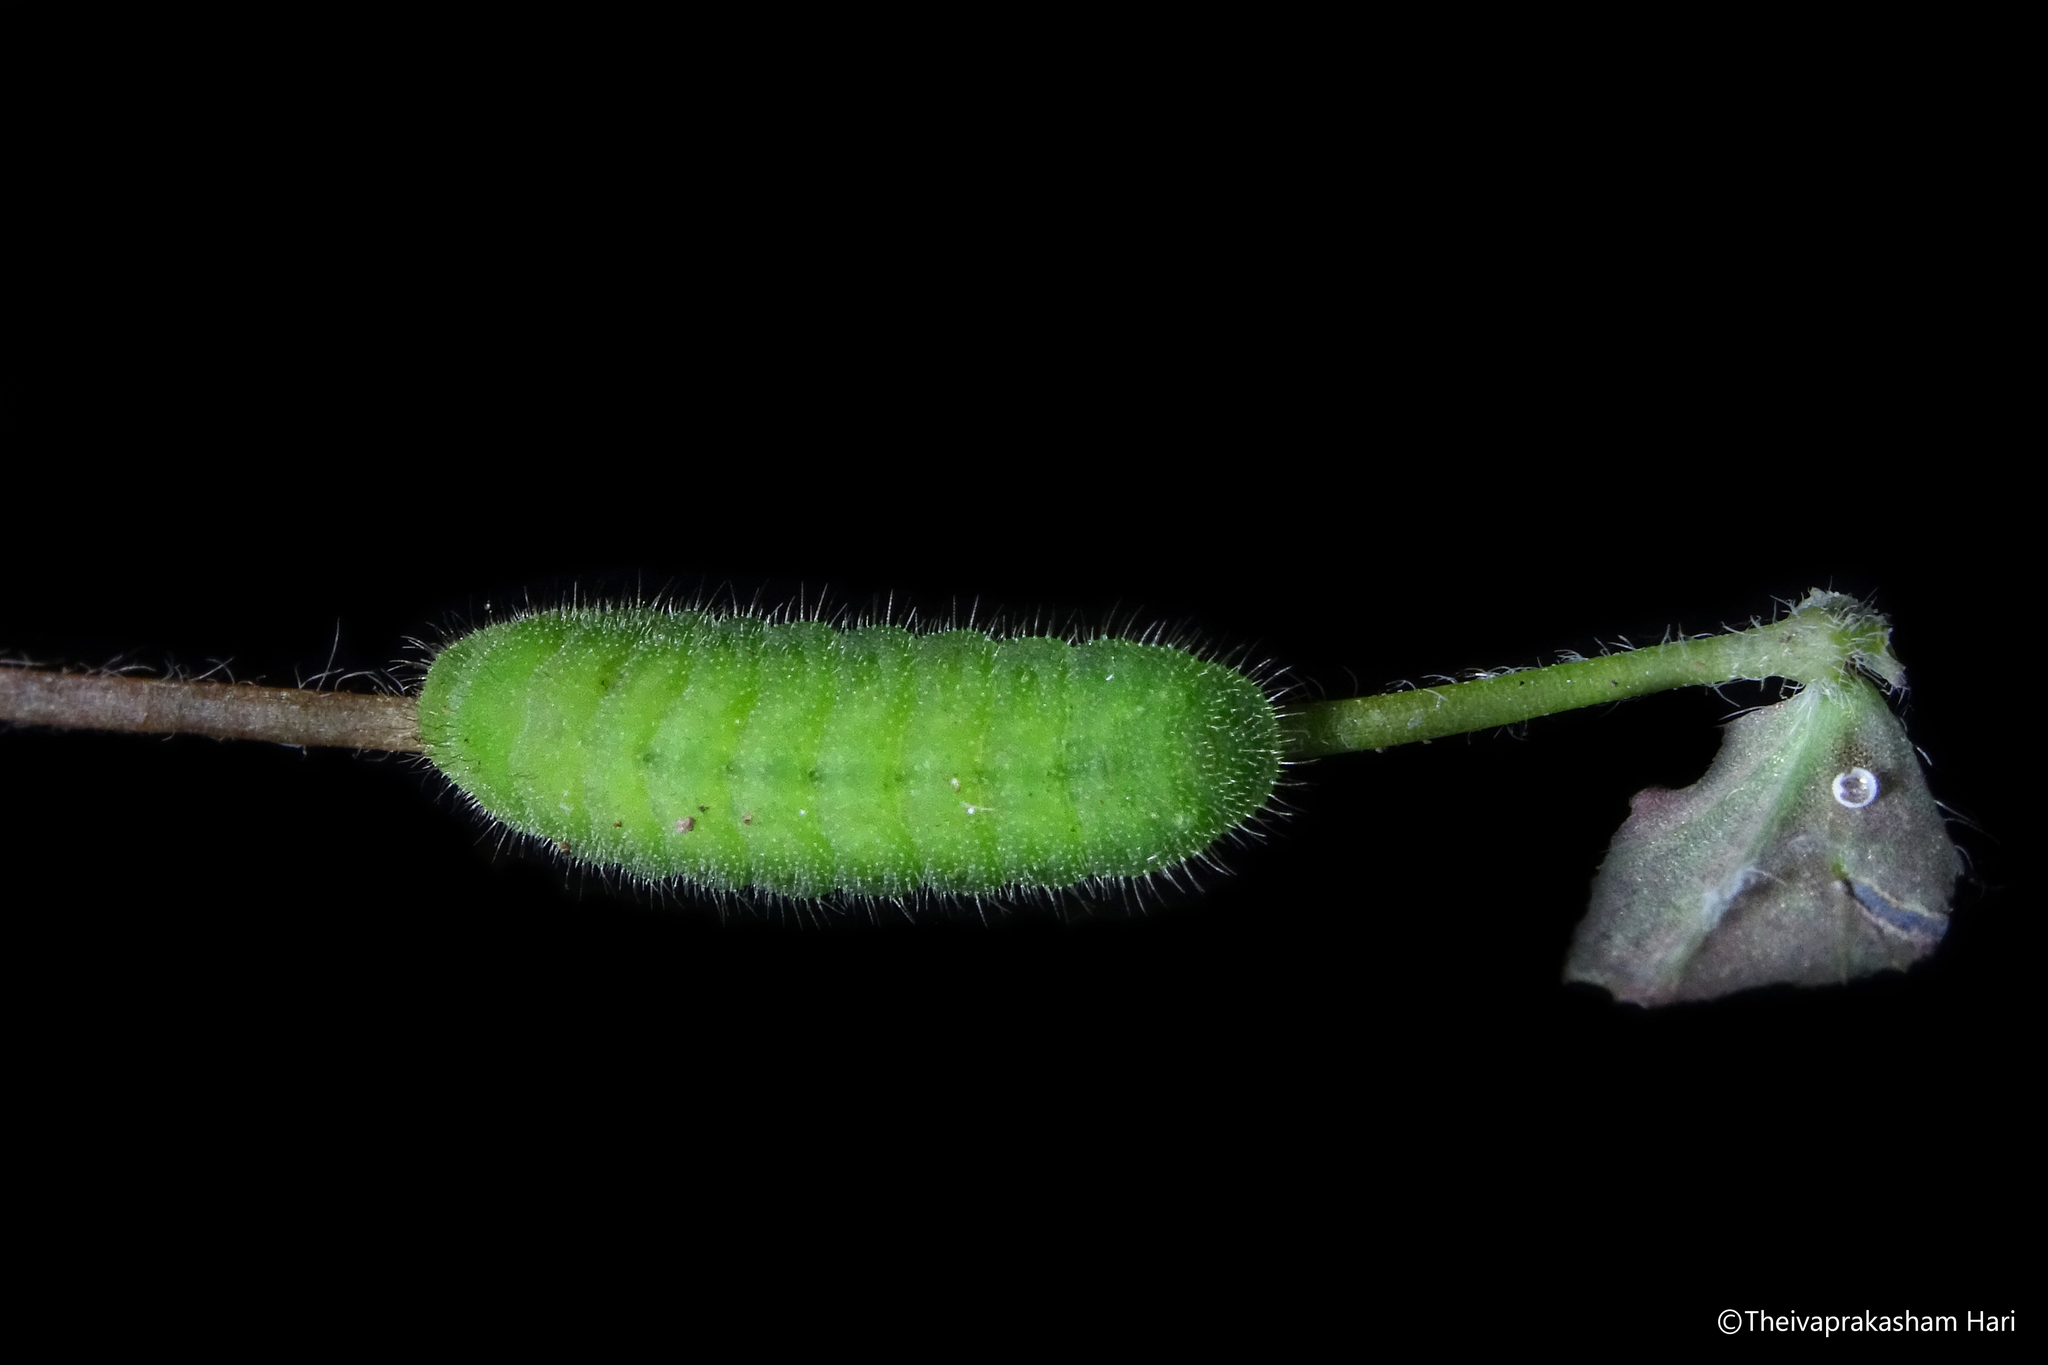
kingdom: Animalia
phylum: Arthropoda
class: Insecta
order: Lepidoptera
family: Lycaenidae
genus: Pseudozizeeria
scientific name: Pseudozizeeria maha
